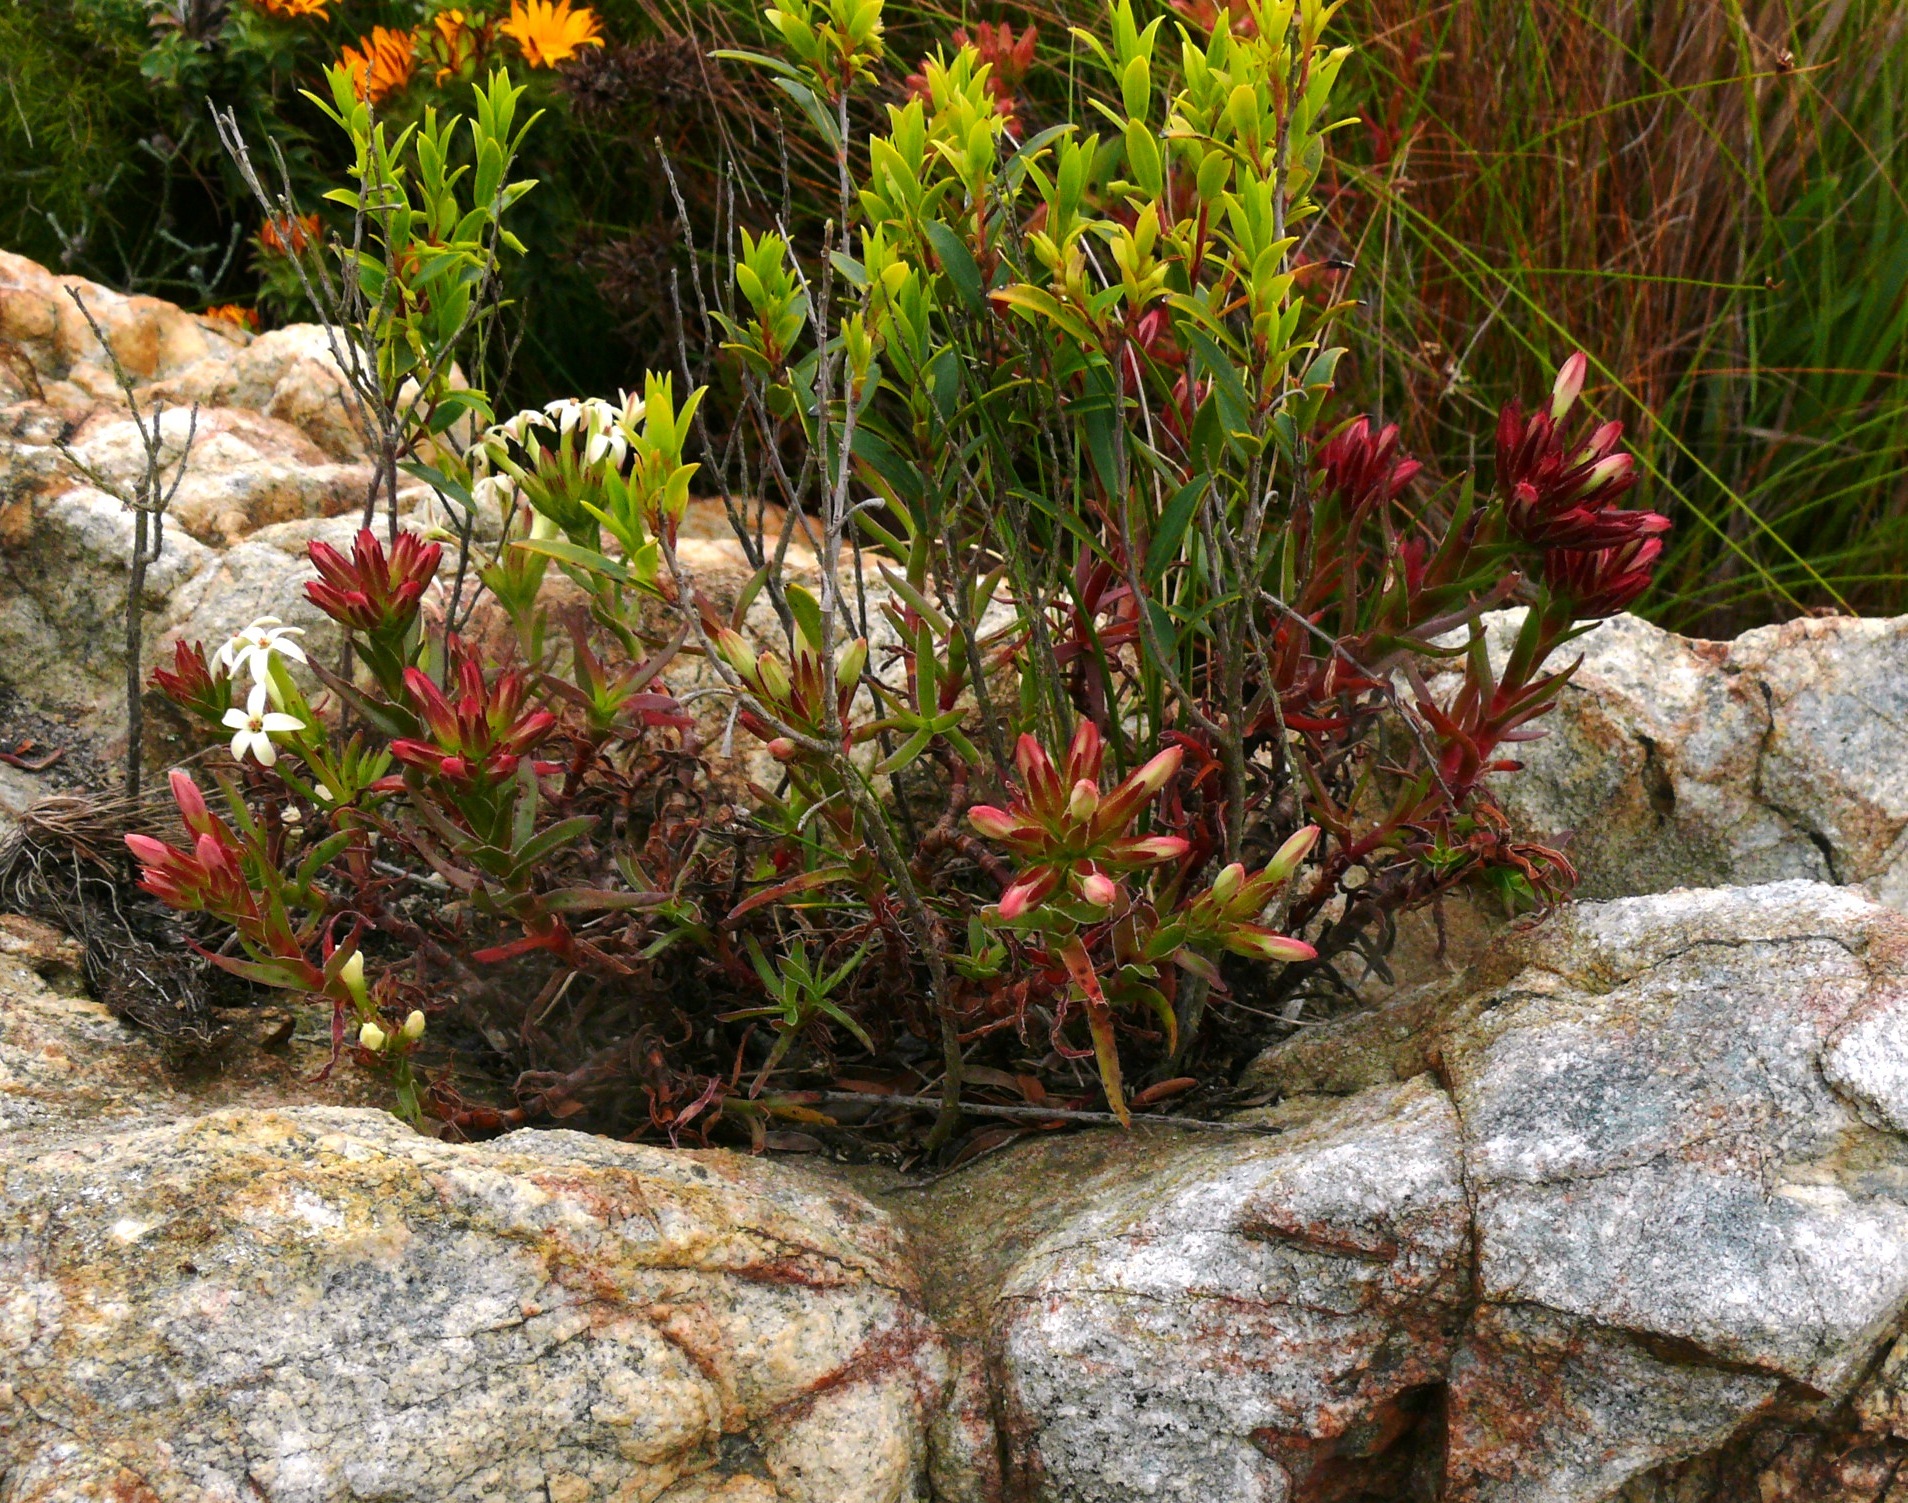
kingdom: Plantae
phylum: Tracheophyta
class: Magnoliopsida
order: Saxifragales
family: Crassulaceae
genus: Crassula
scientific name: Crassula fascicularis
